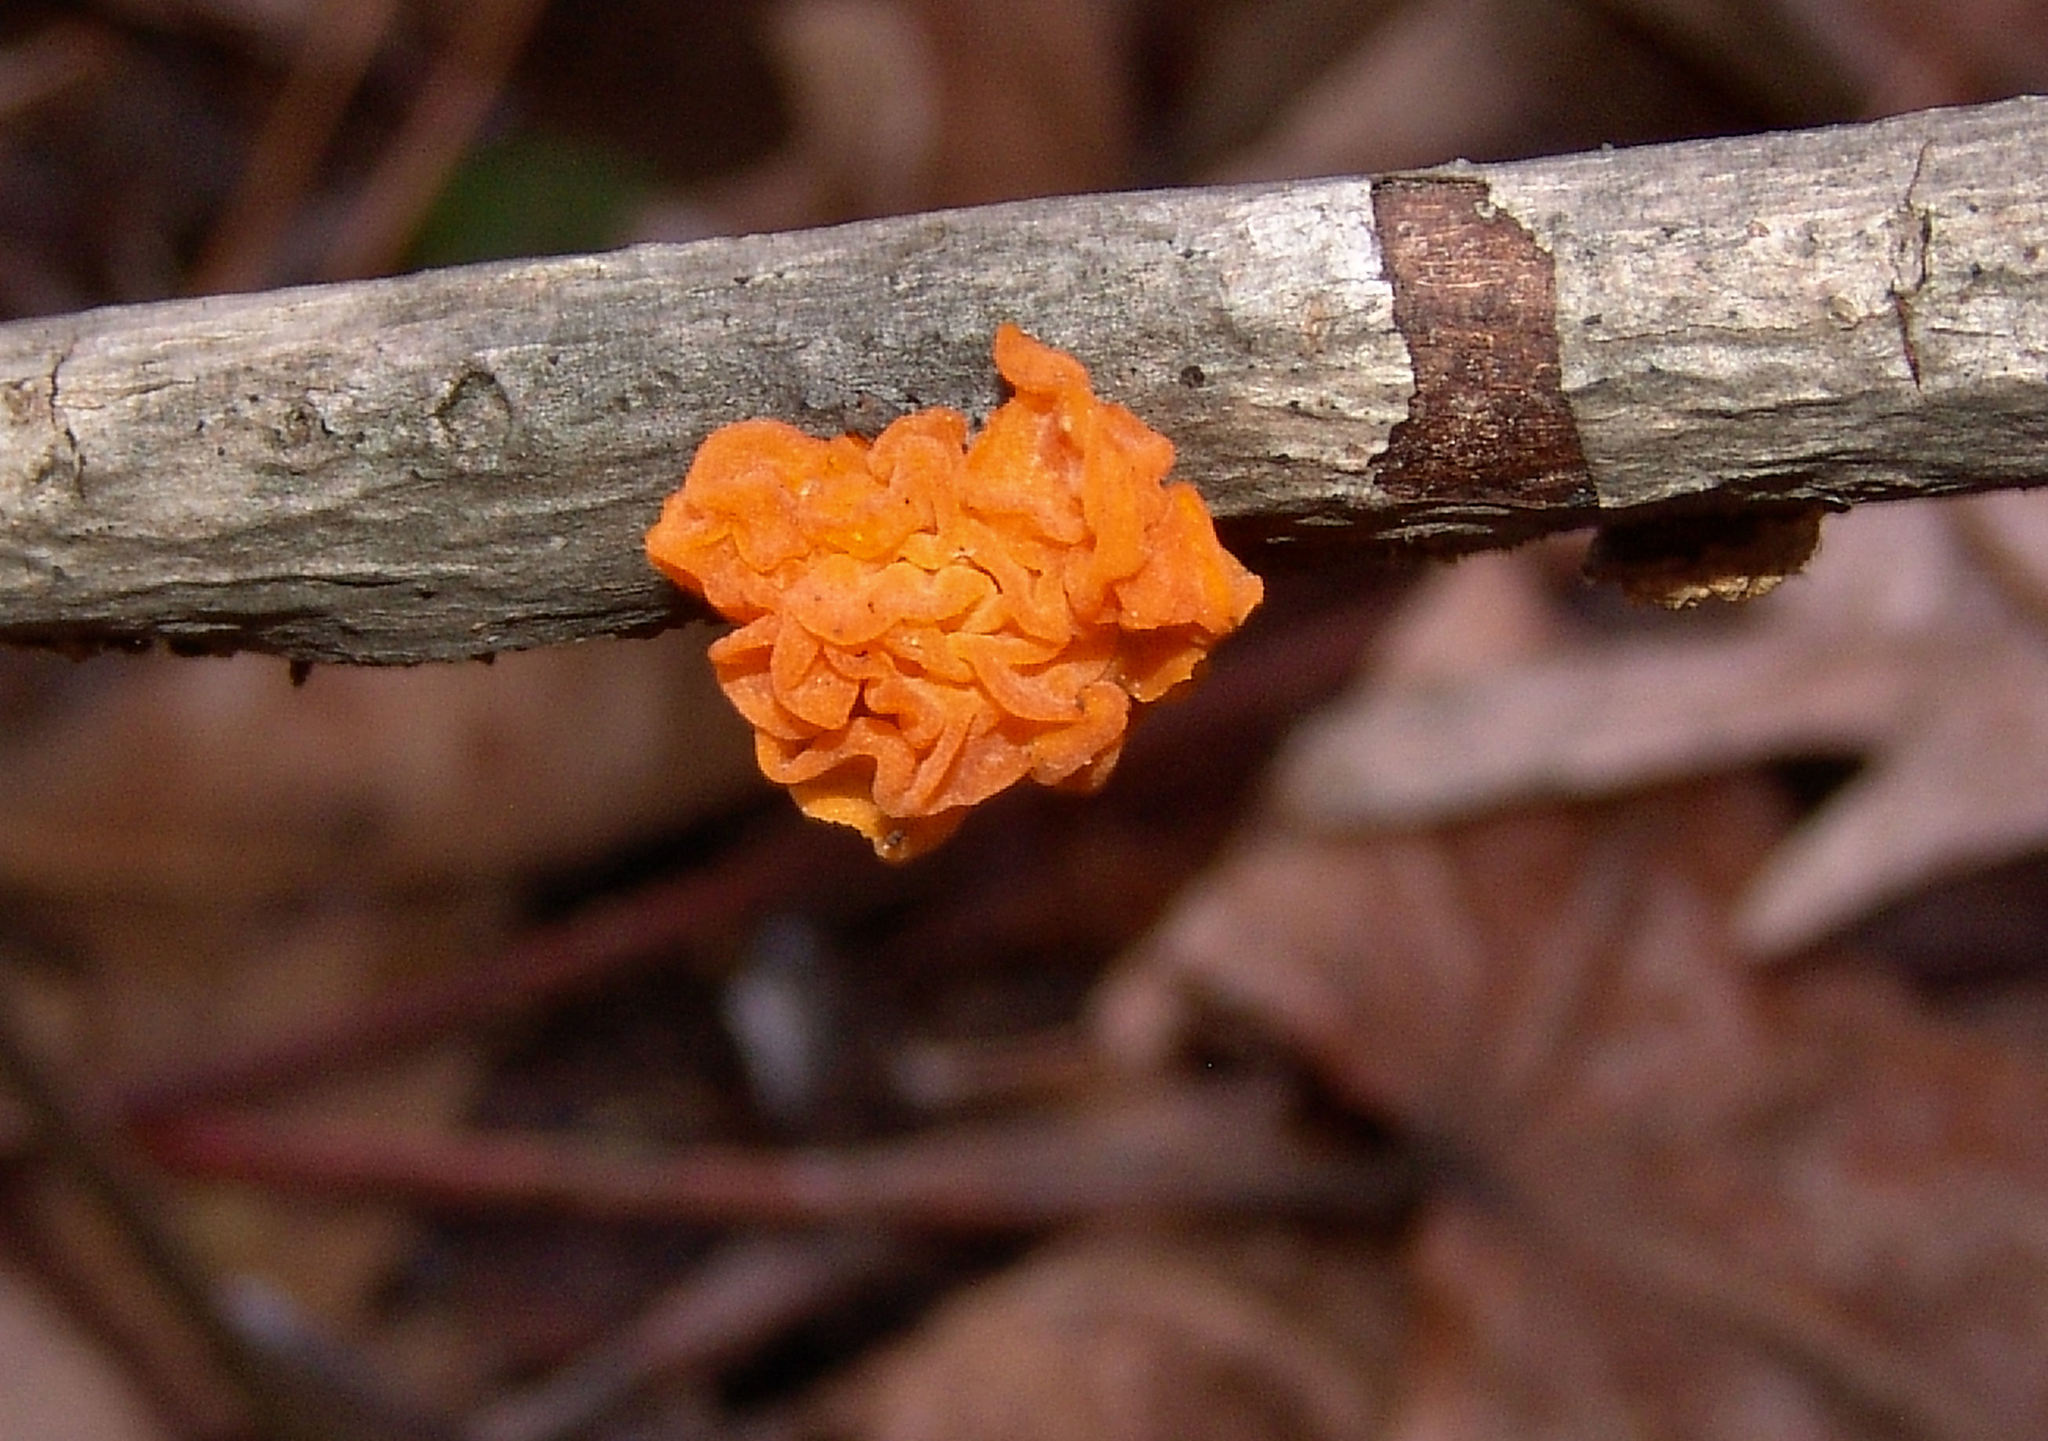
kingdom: Fungi
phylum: Basidiomycota
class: Tremellomycetes
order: Tremellales
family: Tremellaceae
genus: Tremella
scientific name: Tremella mesenterica
